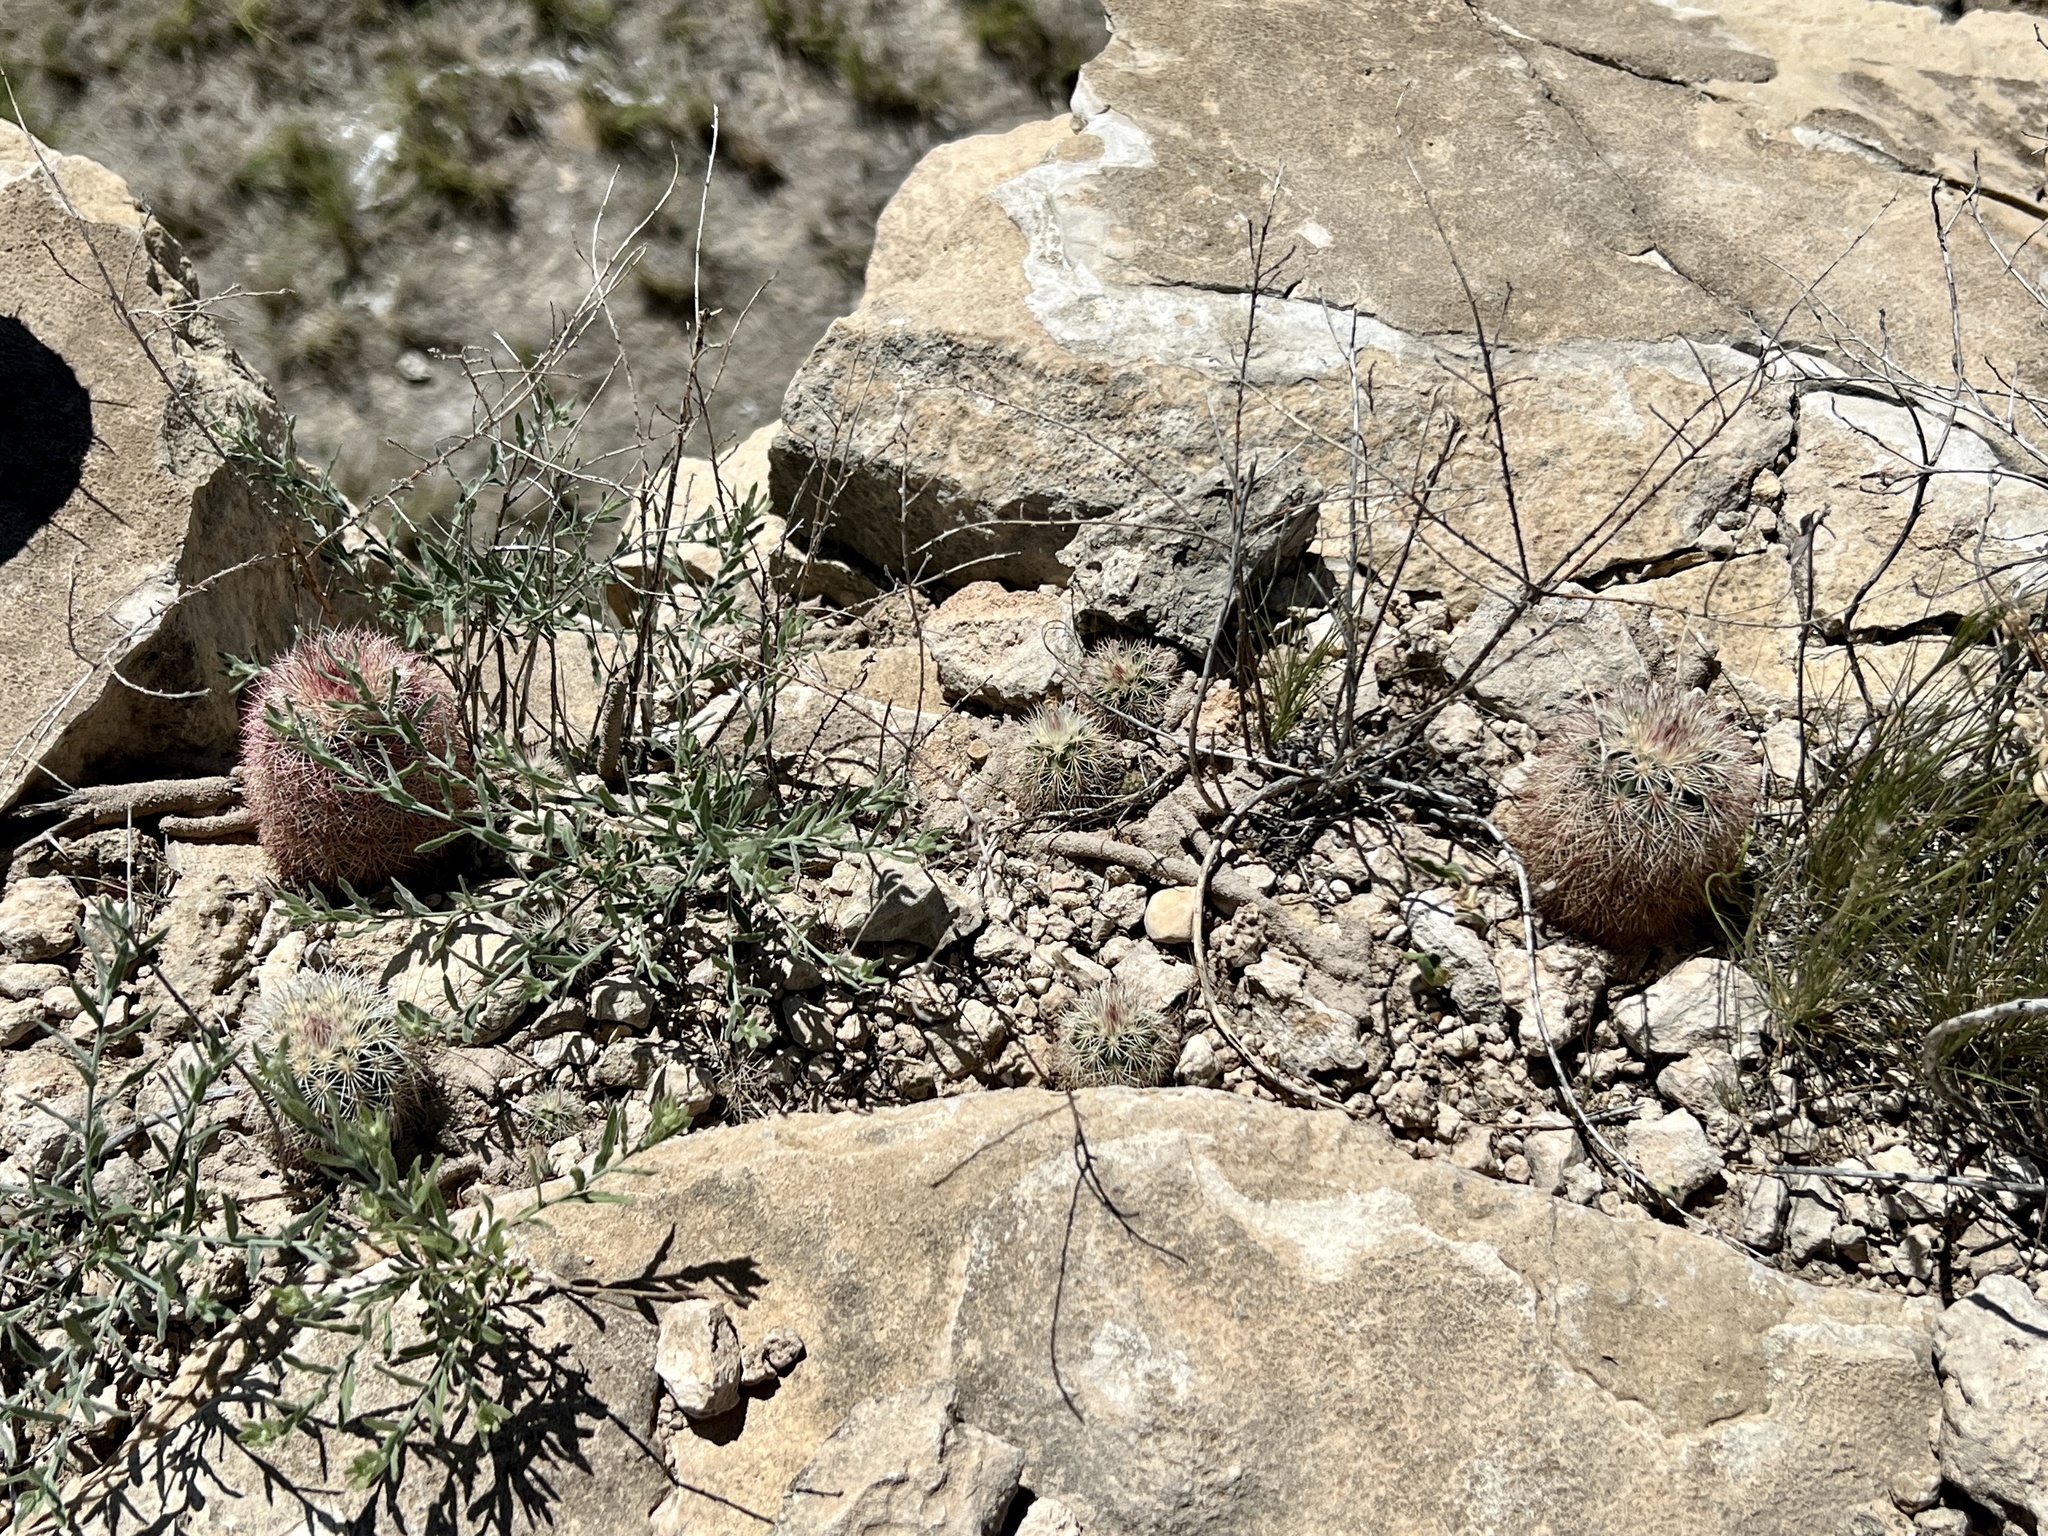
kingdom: Plantae
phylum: Tracheophyta
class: Magnoliopsida
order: Caryophyllales
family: Cactaceae
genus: Echinocereus
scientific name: Echinocereus dasyacanthus
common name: Spiny hedgehog cactus
